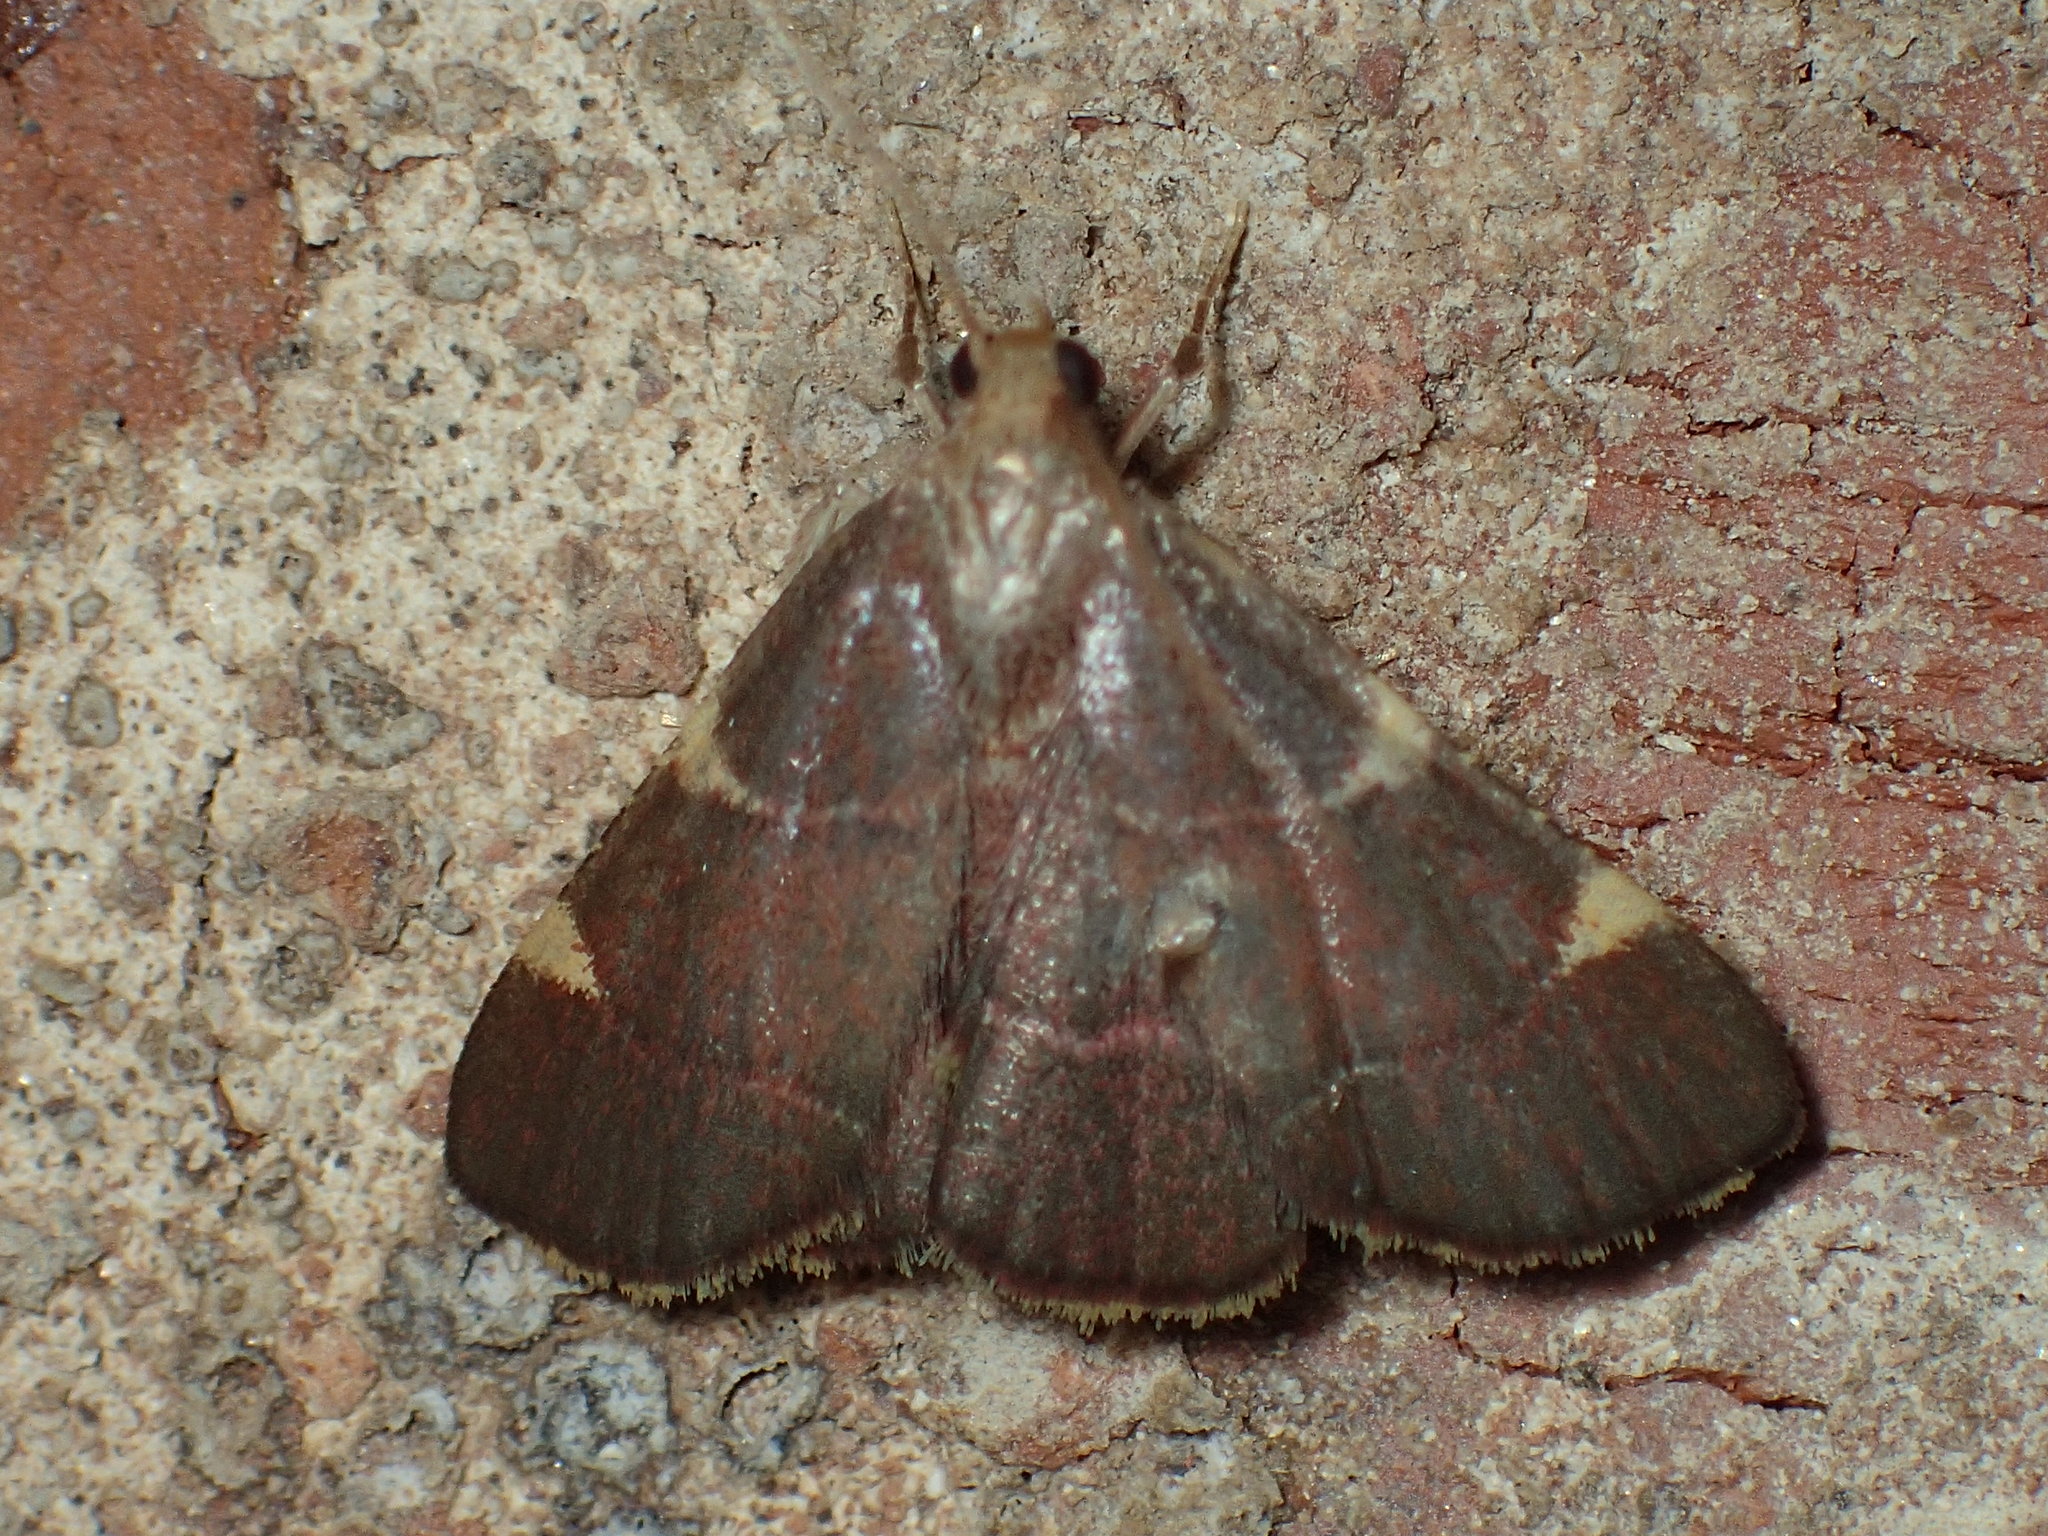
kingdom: Animalia
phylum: Arthropoda
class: Insecta
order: Lepidoptera
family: Pyralidae
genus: Hypsopygia
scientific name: Hypsopygia olinalis
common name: Yellow-fringed dolichomia moth
